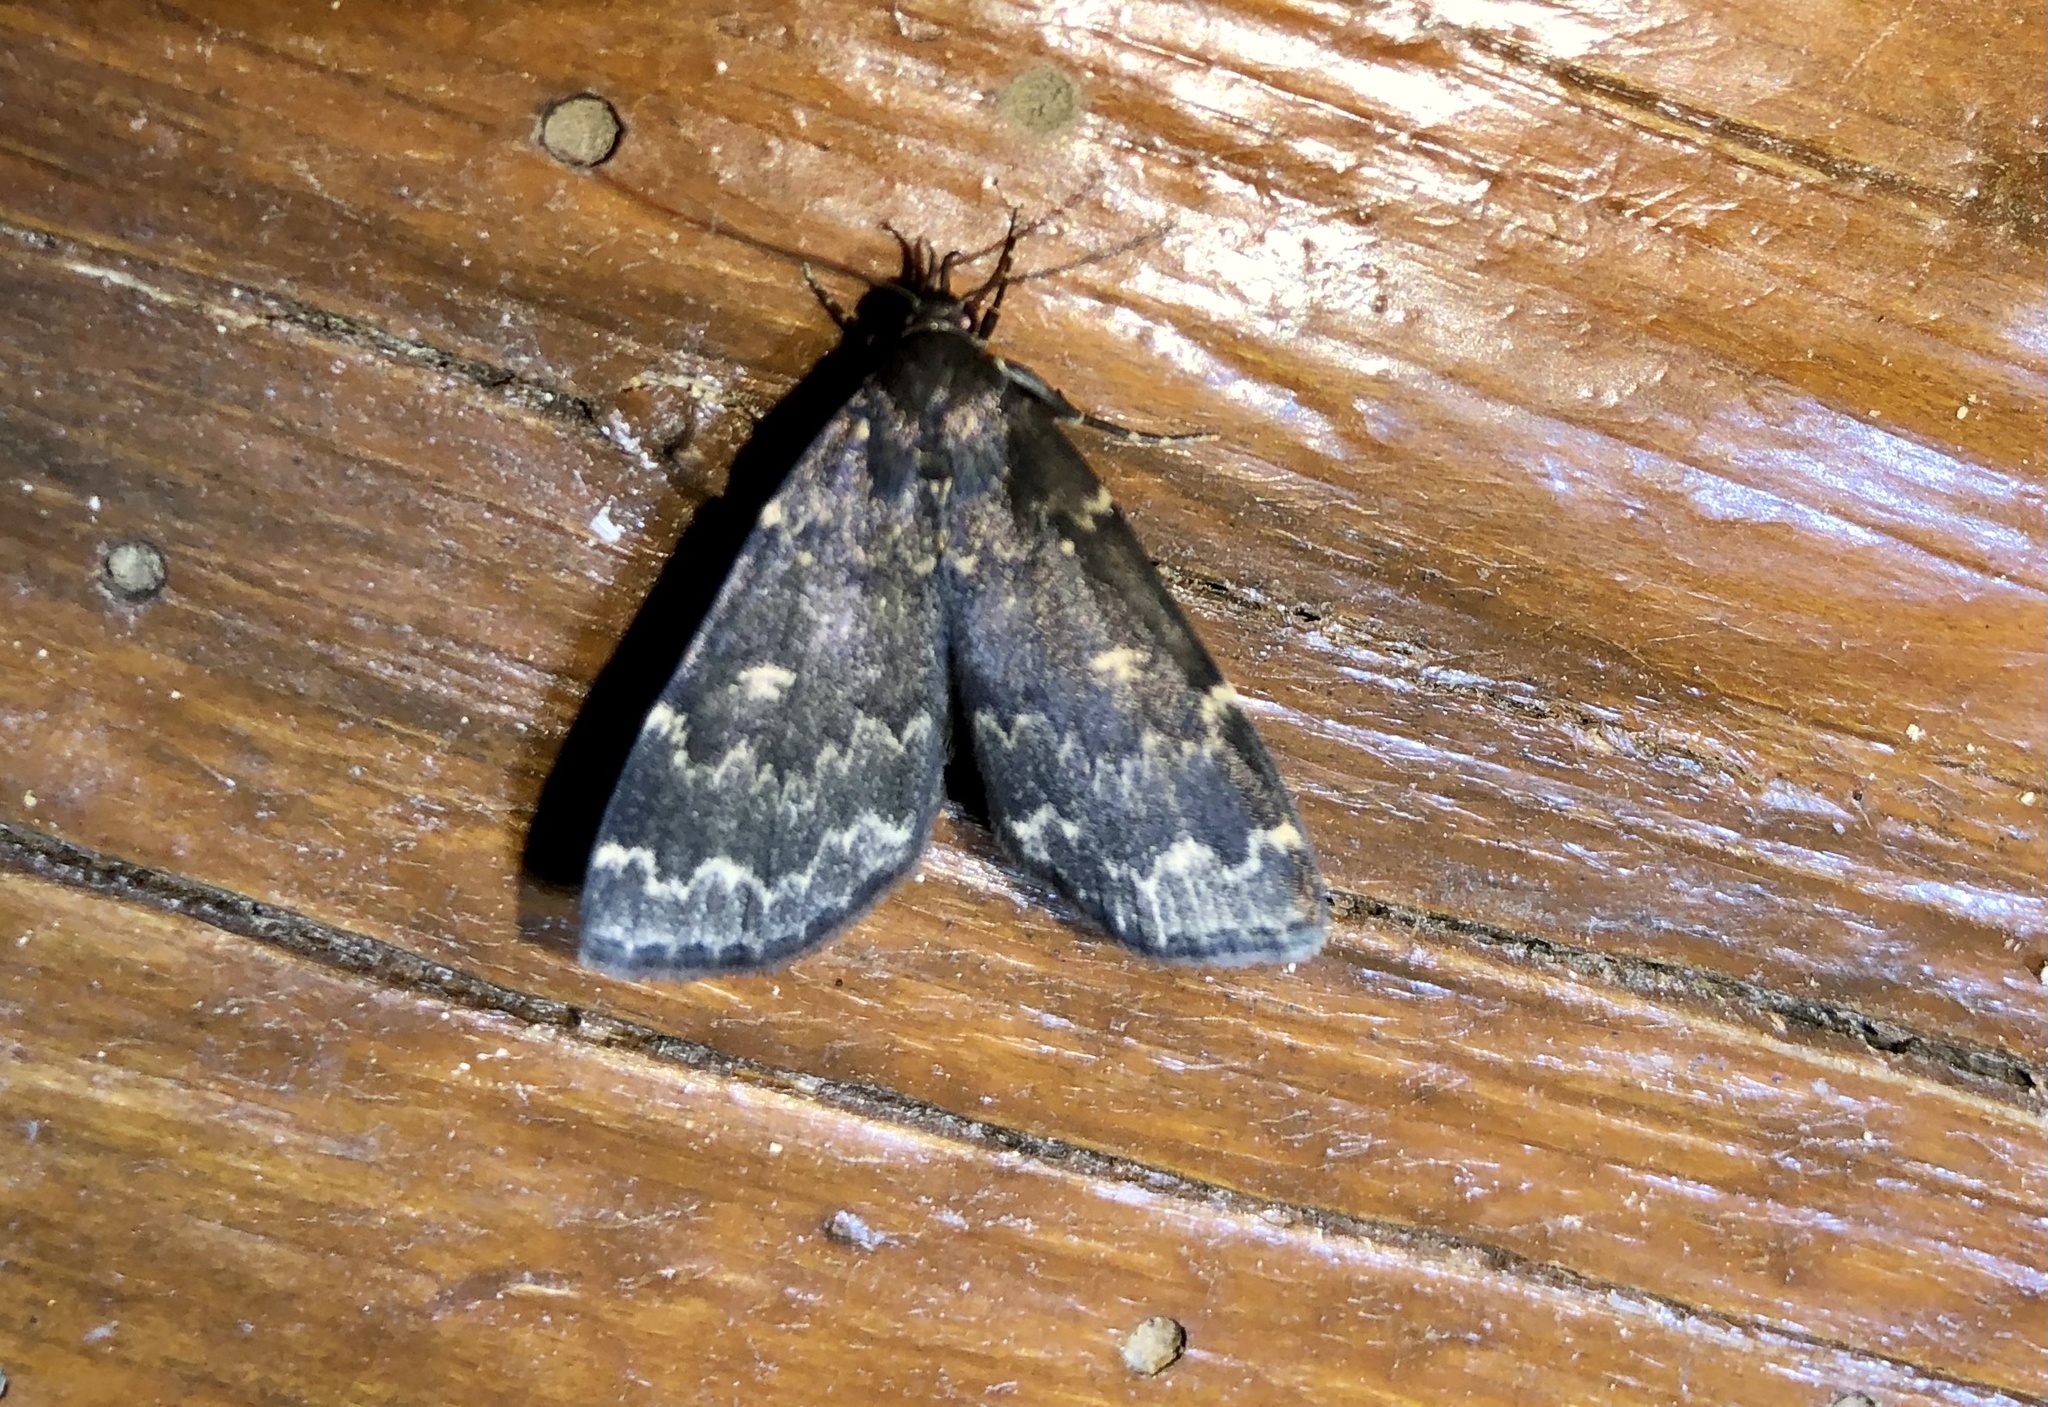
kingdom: Animalia
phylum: Arthropoda
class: Insecta
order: Lepidoptera
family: Erebidae
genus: Idia
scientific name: Idia lubricalis
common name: Twin-striped tabby
